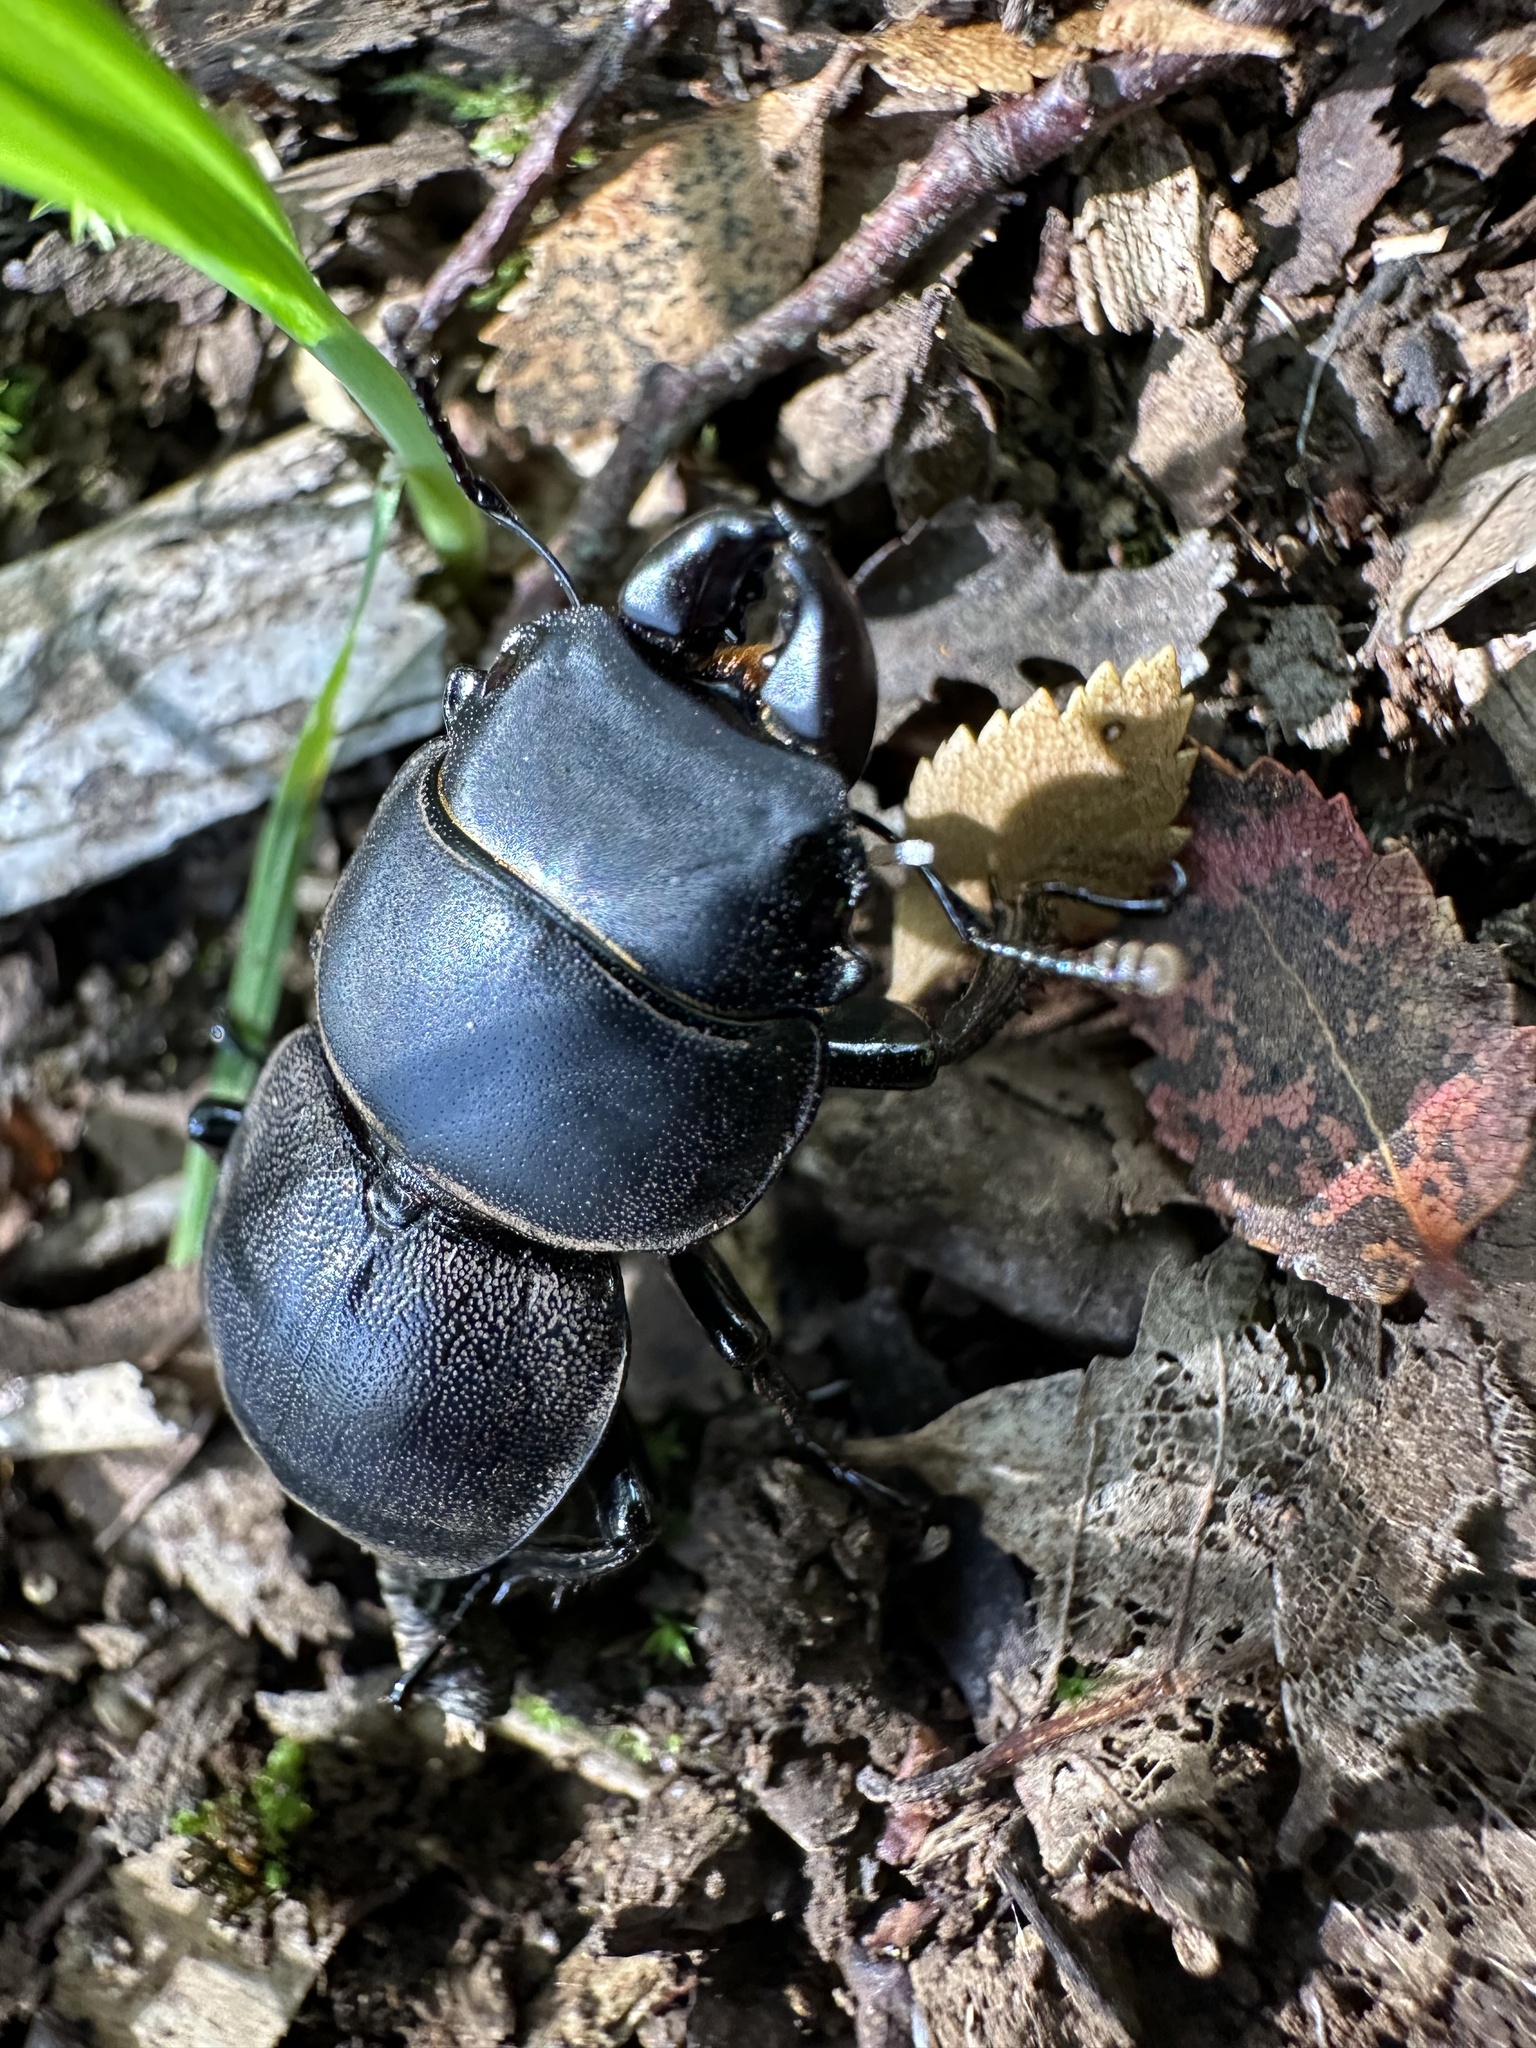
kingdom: Animalia
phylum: Arthropoda
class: Insecta
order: Coleoptera
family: Lucanidae
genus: Apterodorcus
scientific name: Apterodorcus bacchus
